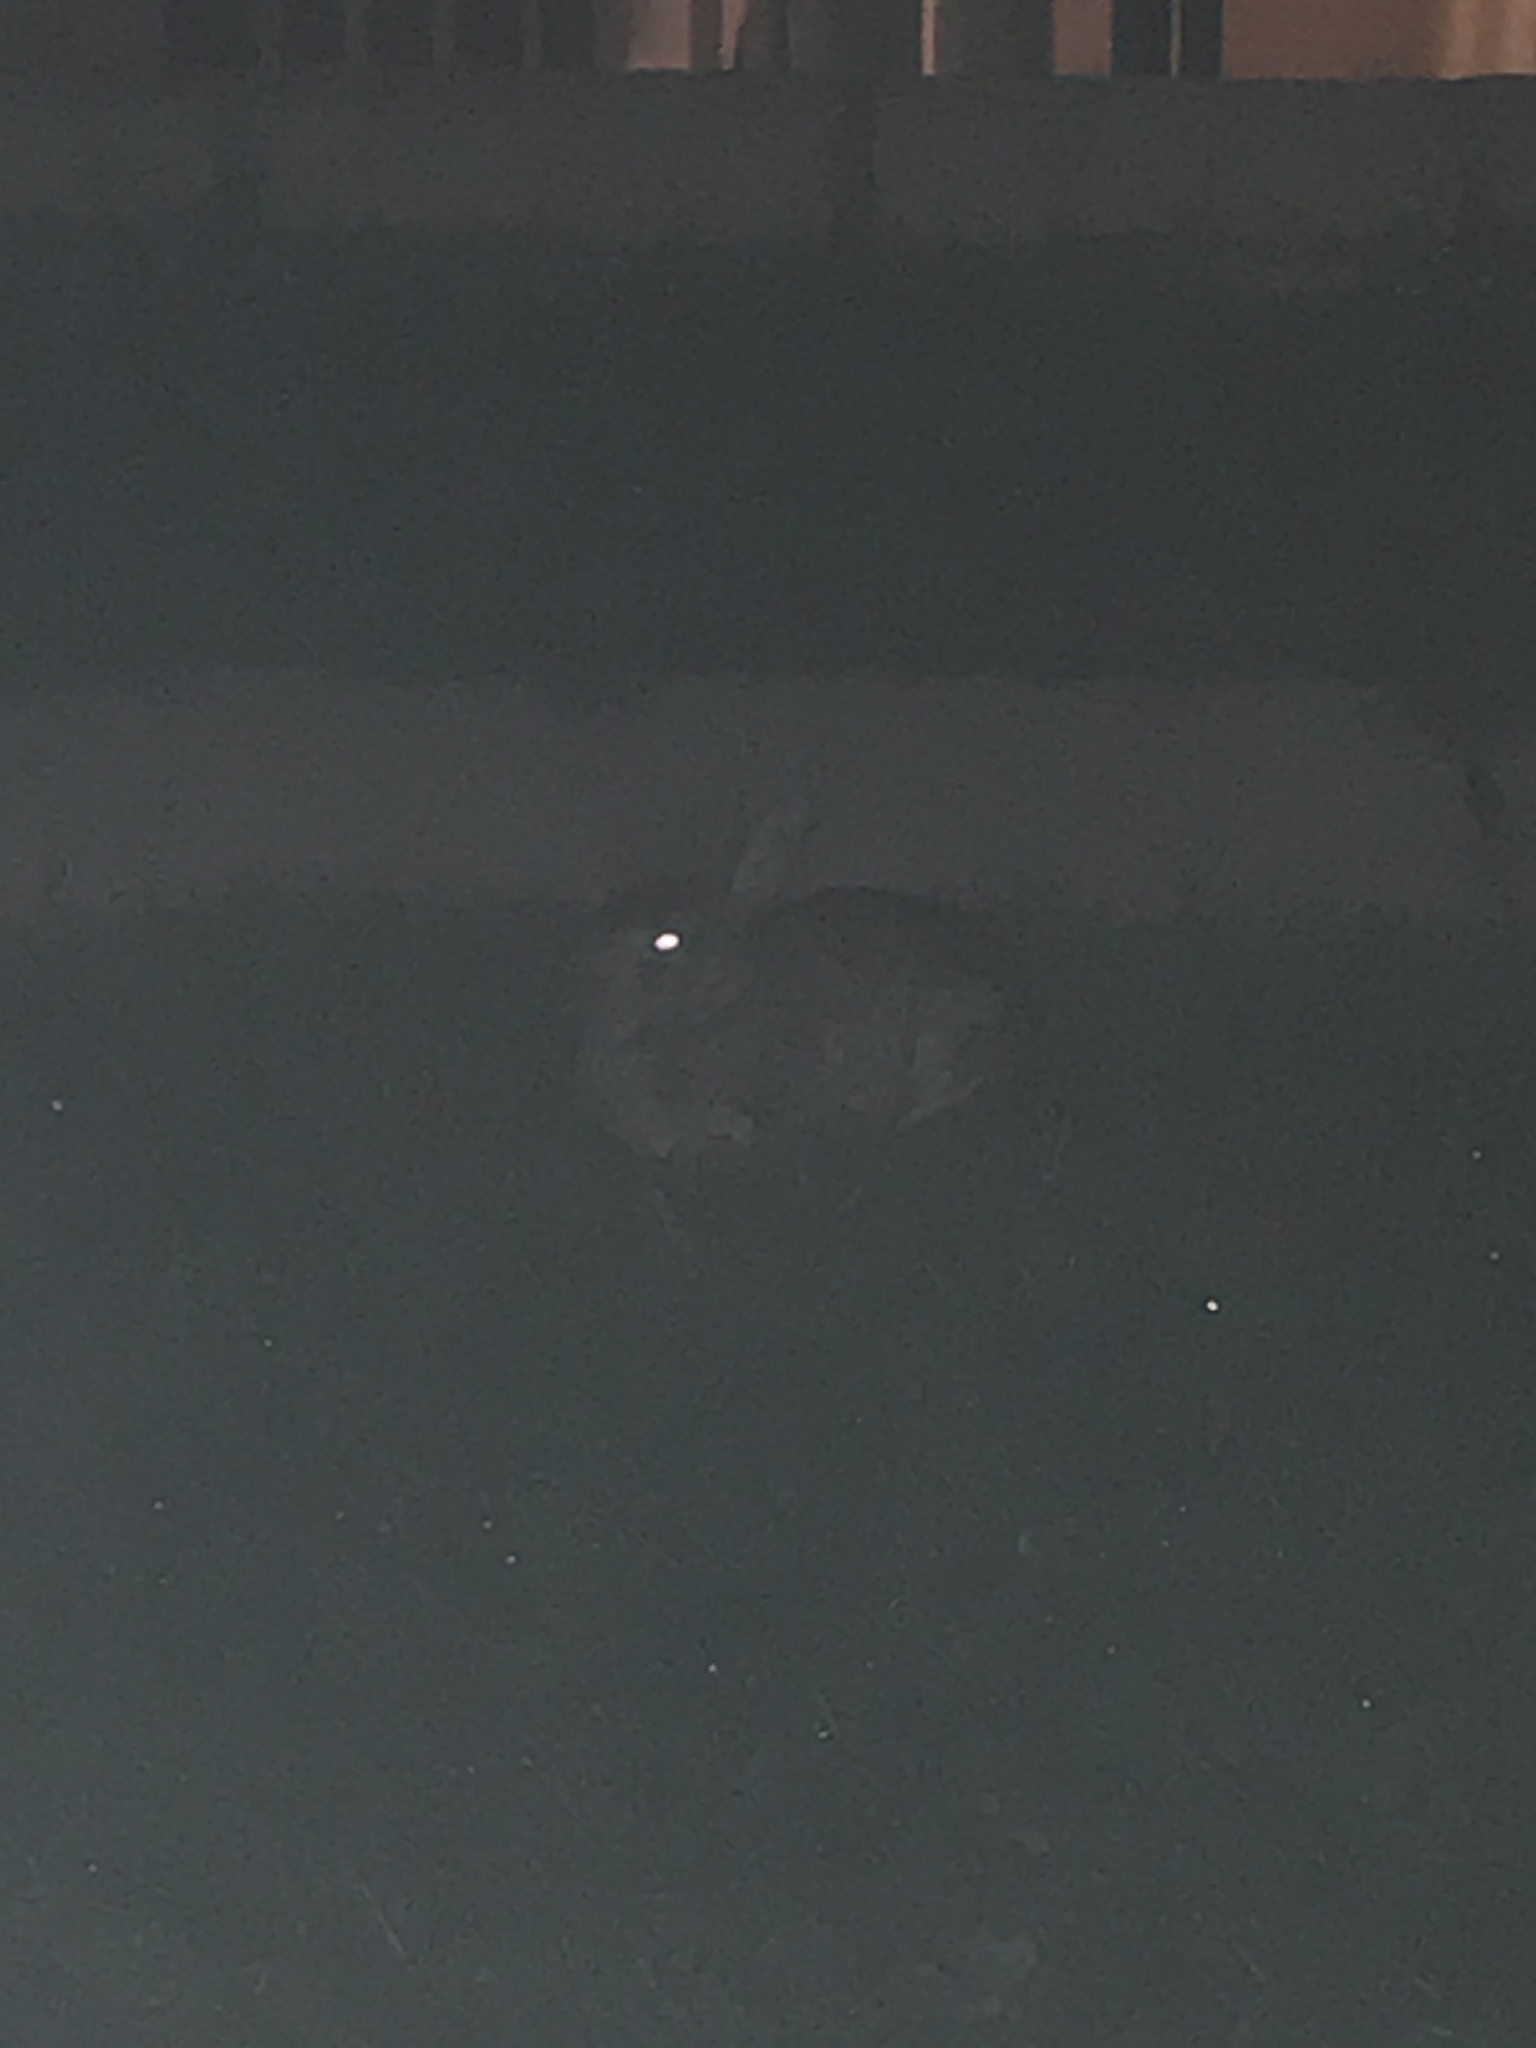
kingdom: Animalia
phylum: Chordata
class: Mammalia
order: Lagomorpha
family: Leporidae
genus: Sylvilagus
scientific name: Sylvilagus floridanus
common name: Eastern cottontail
